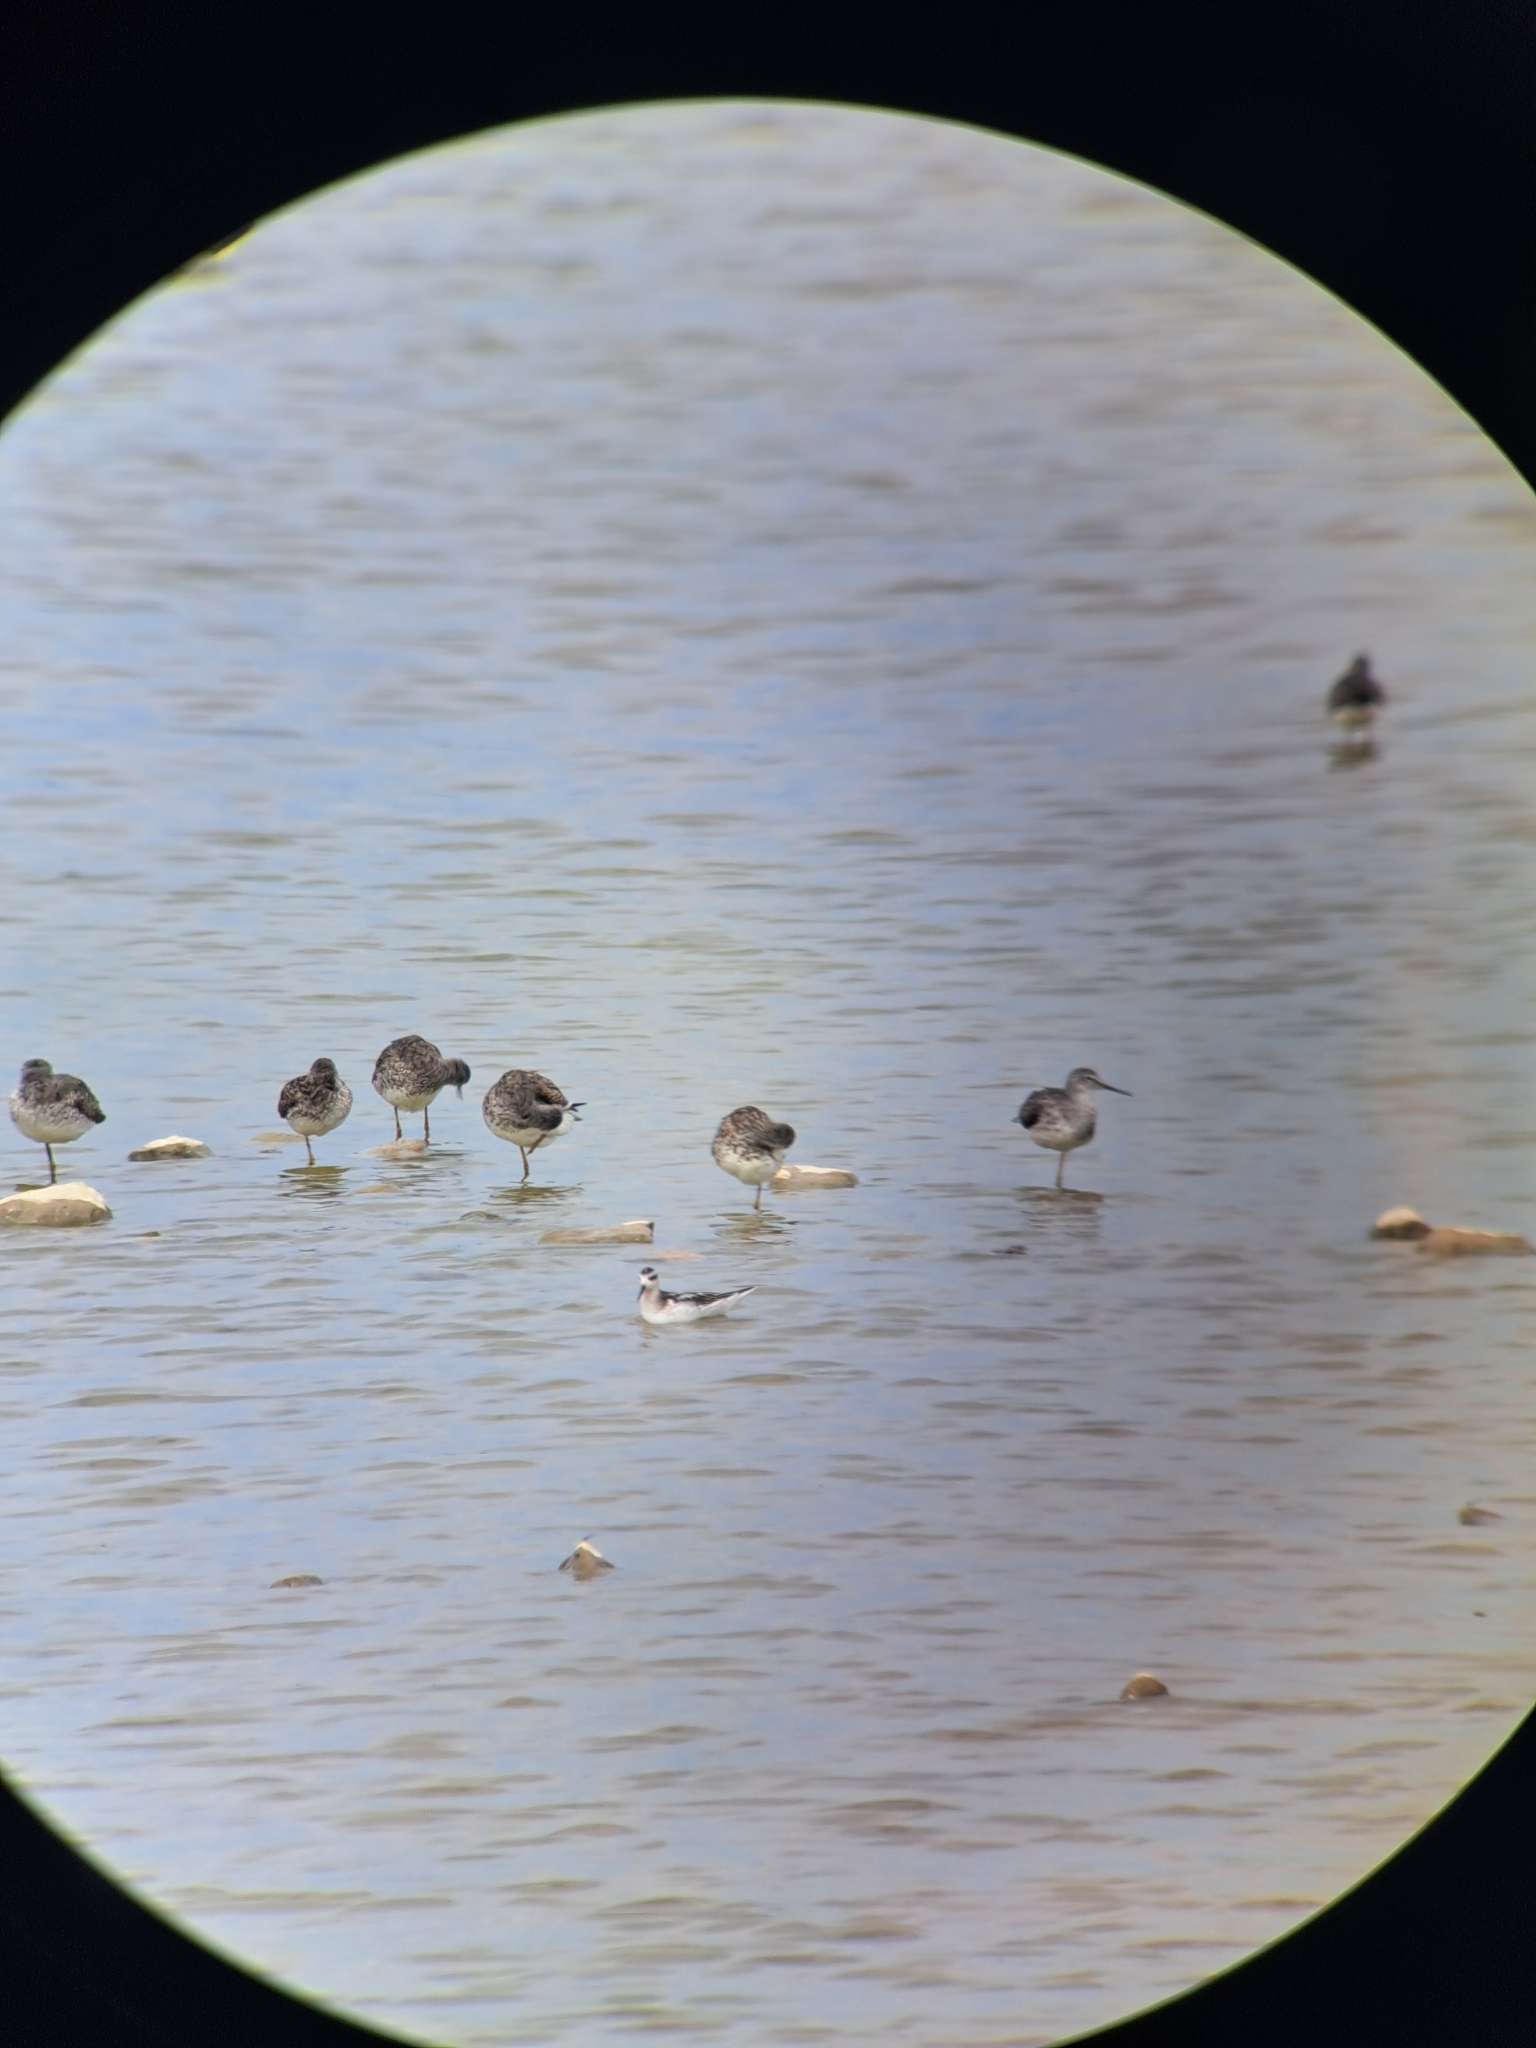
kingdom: Animalia
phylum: Chordata
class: Aves
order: Charadriiformes
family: Scolopacidae
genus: Phalaropus
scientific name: Phalaropus lobatus
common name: Red-necked phalarope
